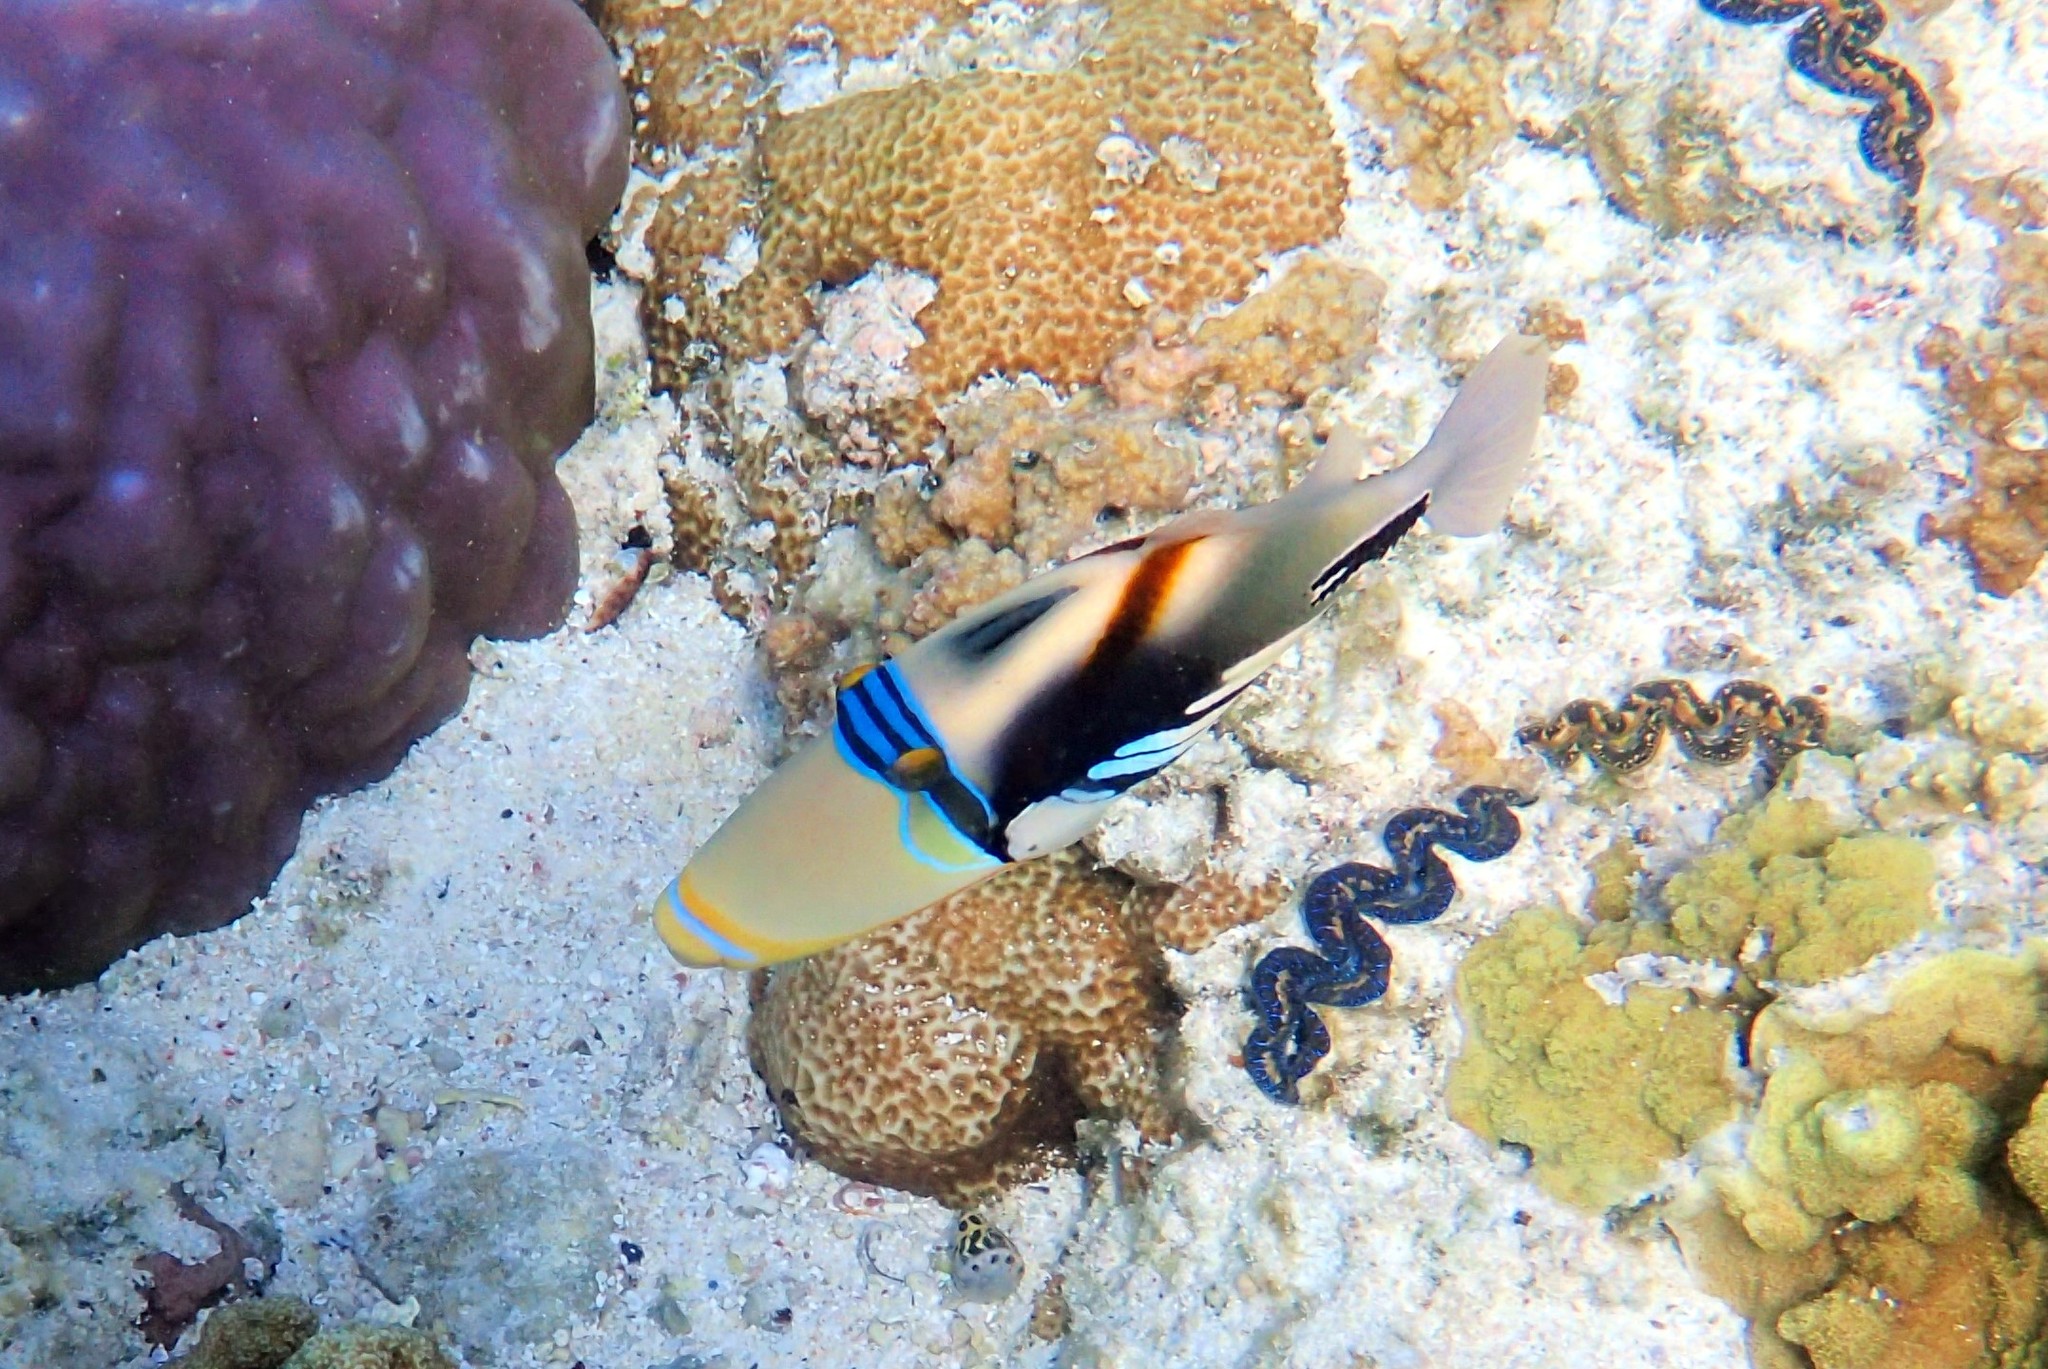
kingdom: Animalia
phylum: Chordata
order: Tetraodontiformes
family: Balistidae
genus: Rhinecanthus
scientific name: Rhinecanthus aculeatus
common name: White-banded triggerfish
